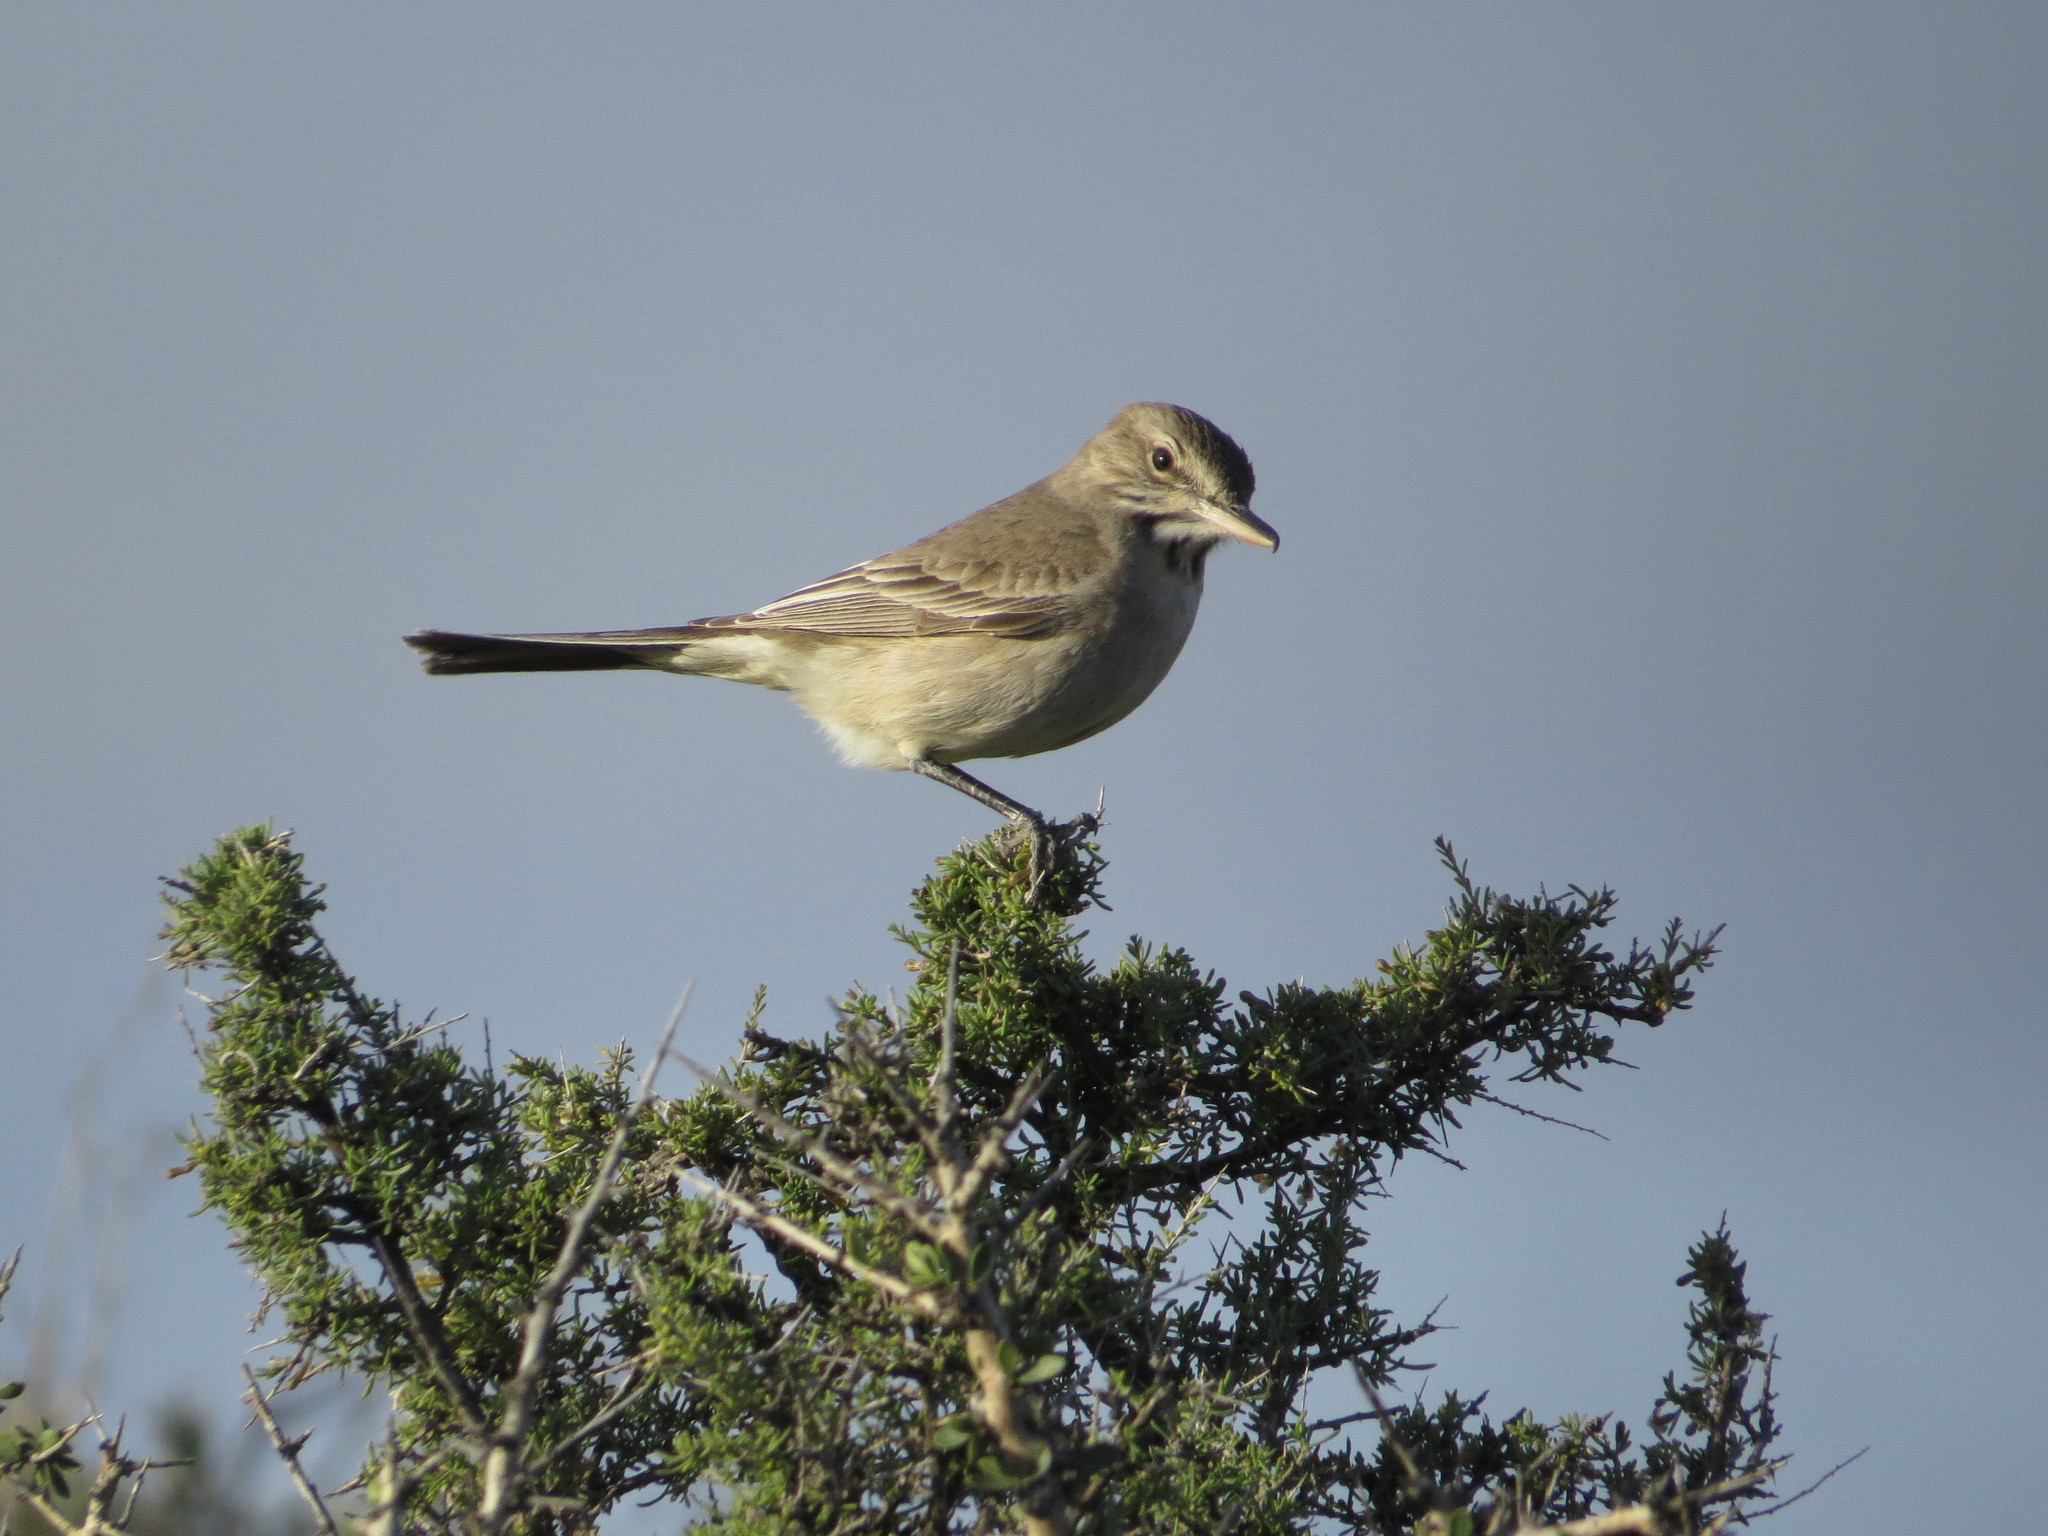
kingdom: Animalia
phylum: Chordata
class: Aves
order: Passeriformes
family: Tyrannidae
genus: Agriornis
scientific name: Agriornis micropterus
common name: Grey-bellied shrike-tyrant
